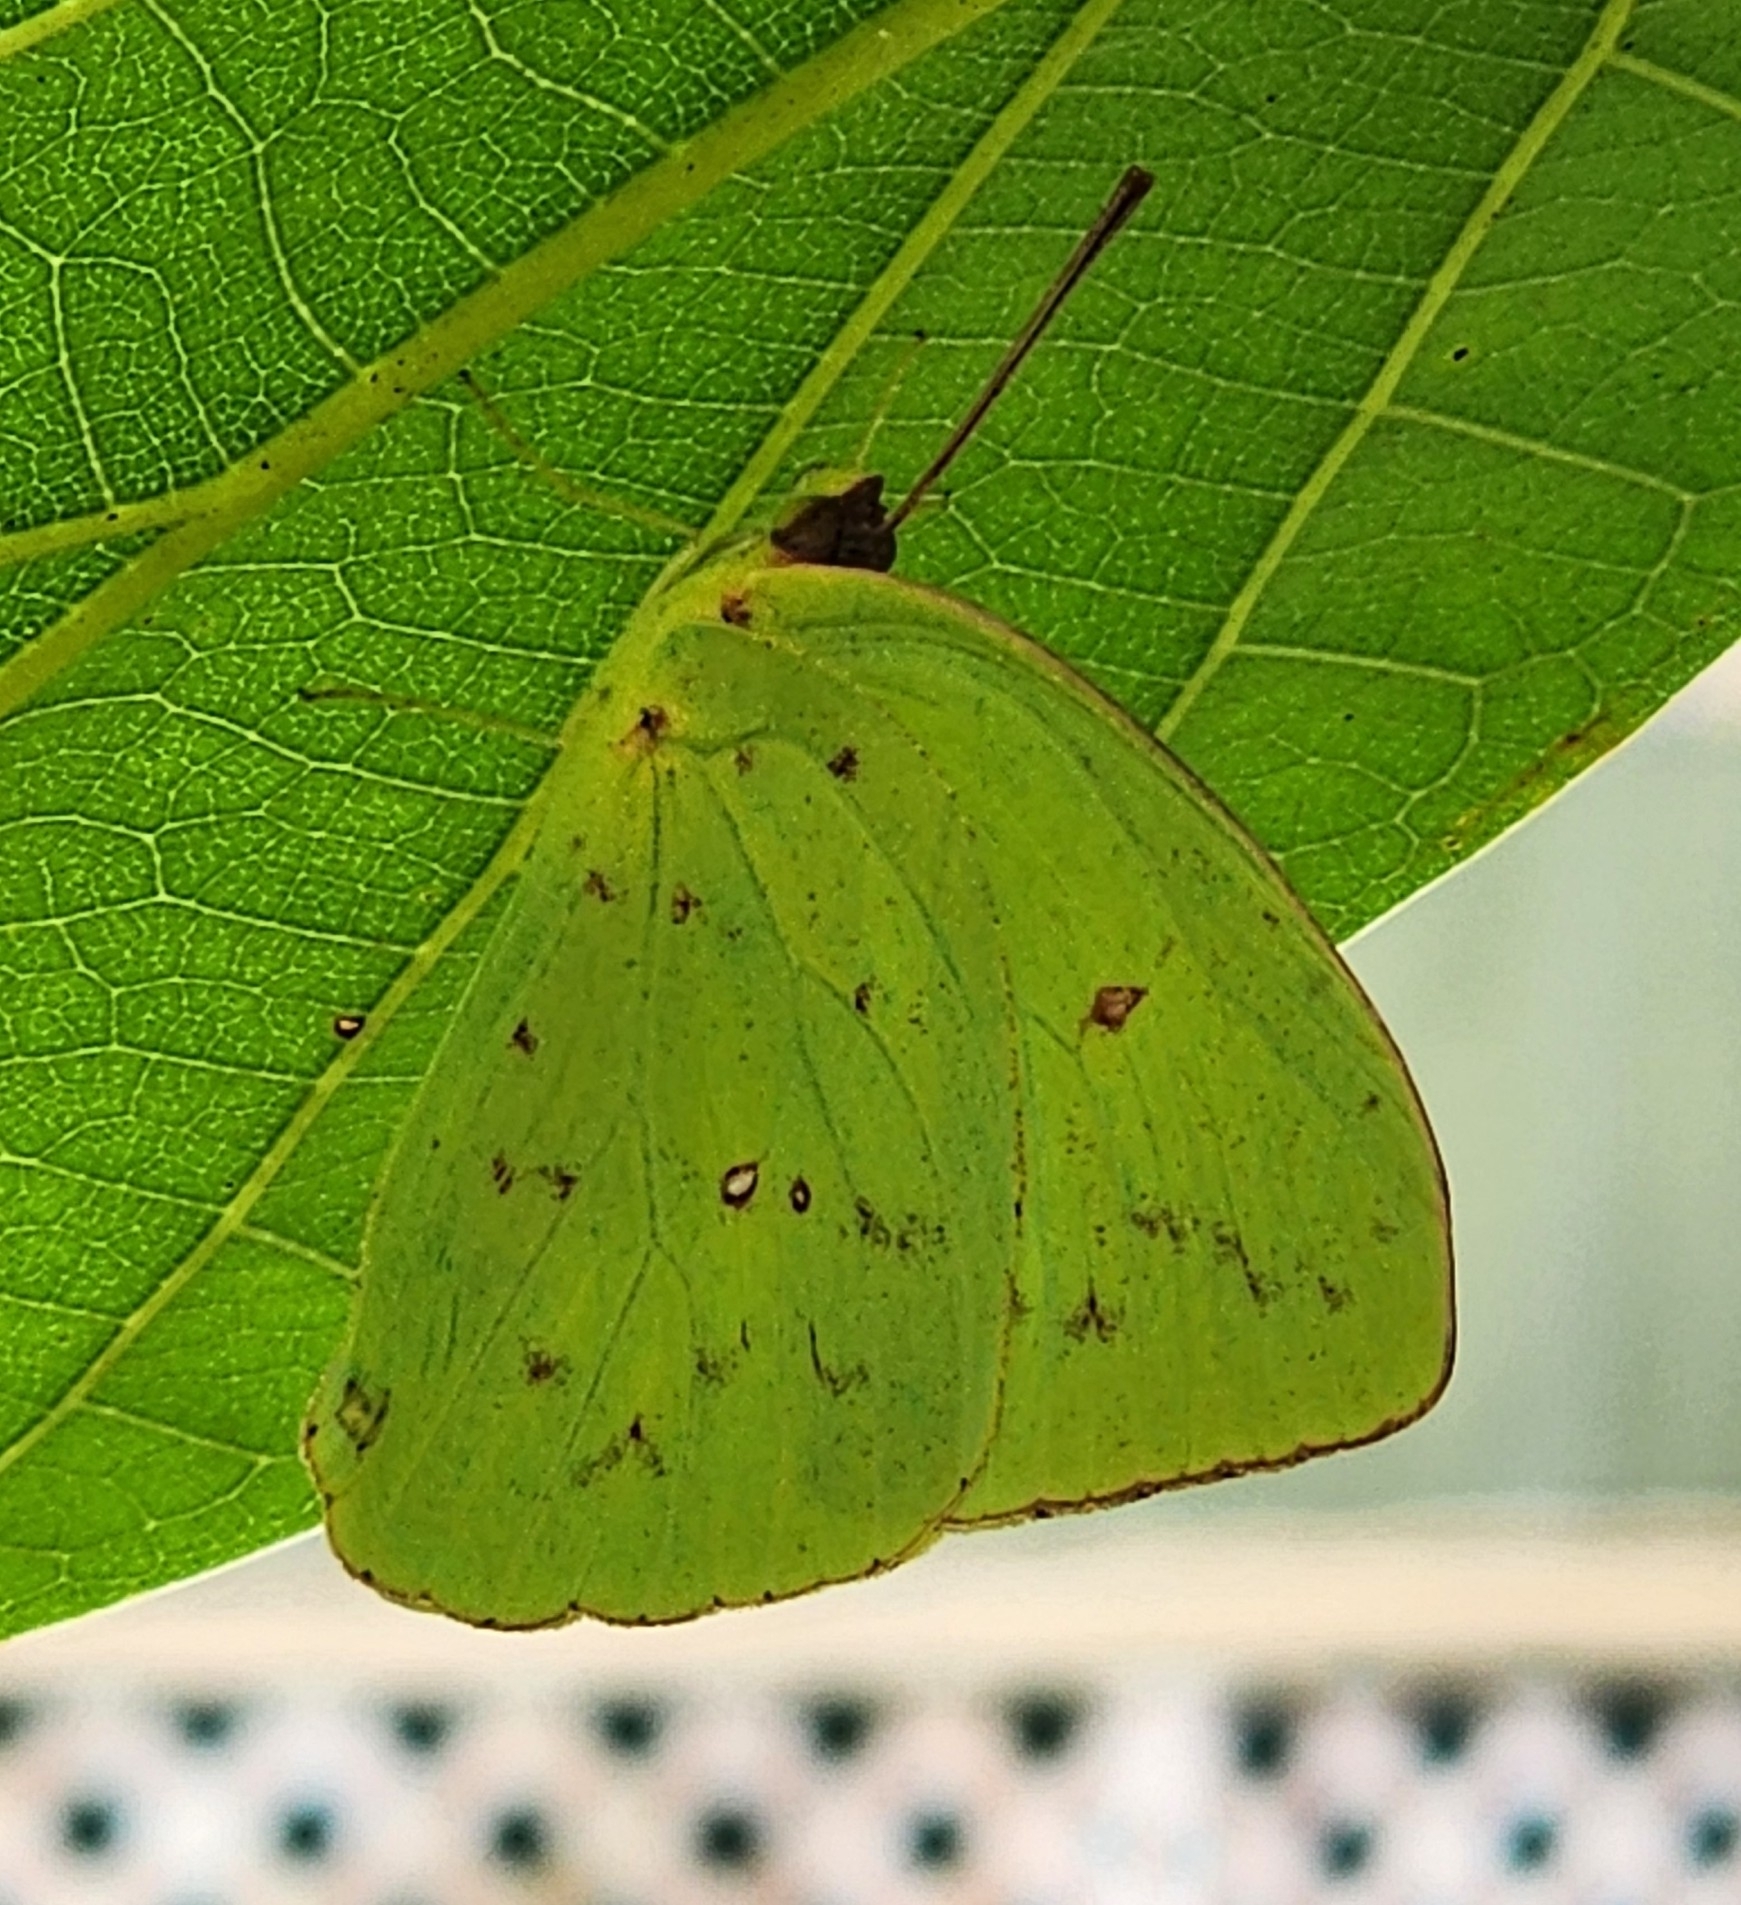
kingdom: Animalia
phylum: Arthropoda
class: Insecta
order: Lepidoptera
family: Pieridae
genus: Phoebis
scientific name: Phoebis sennae
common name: Cloudless sulphur
